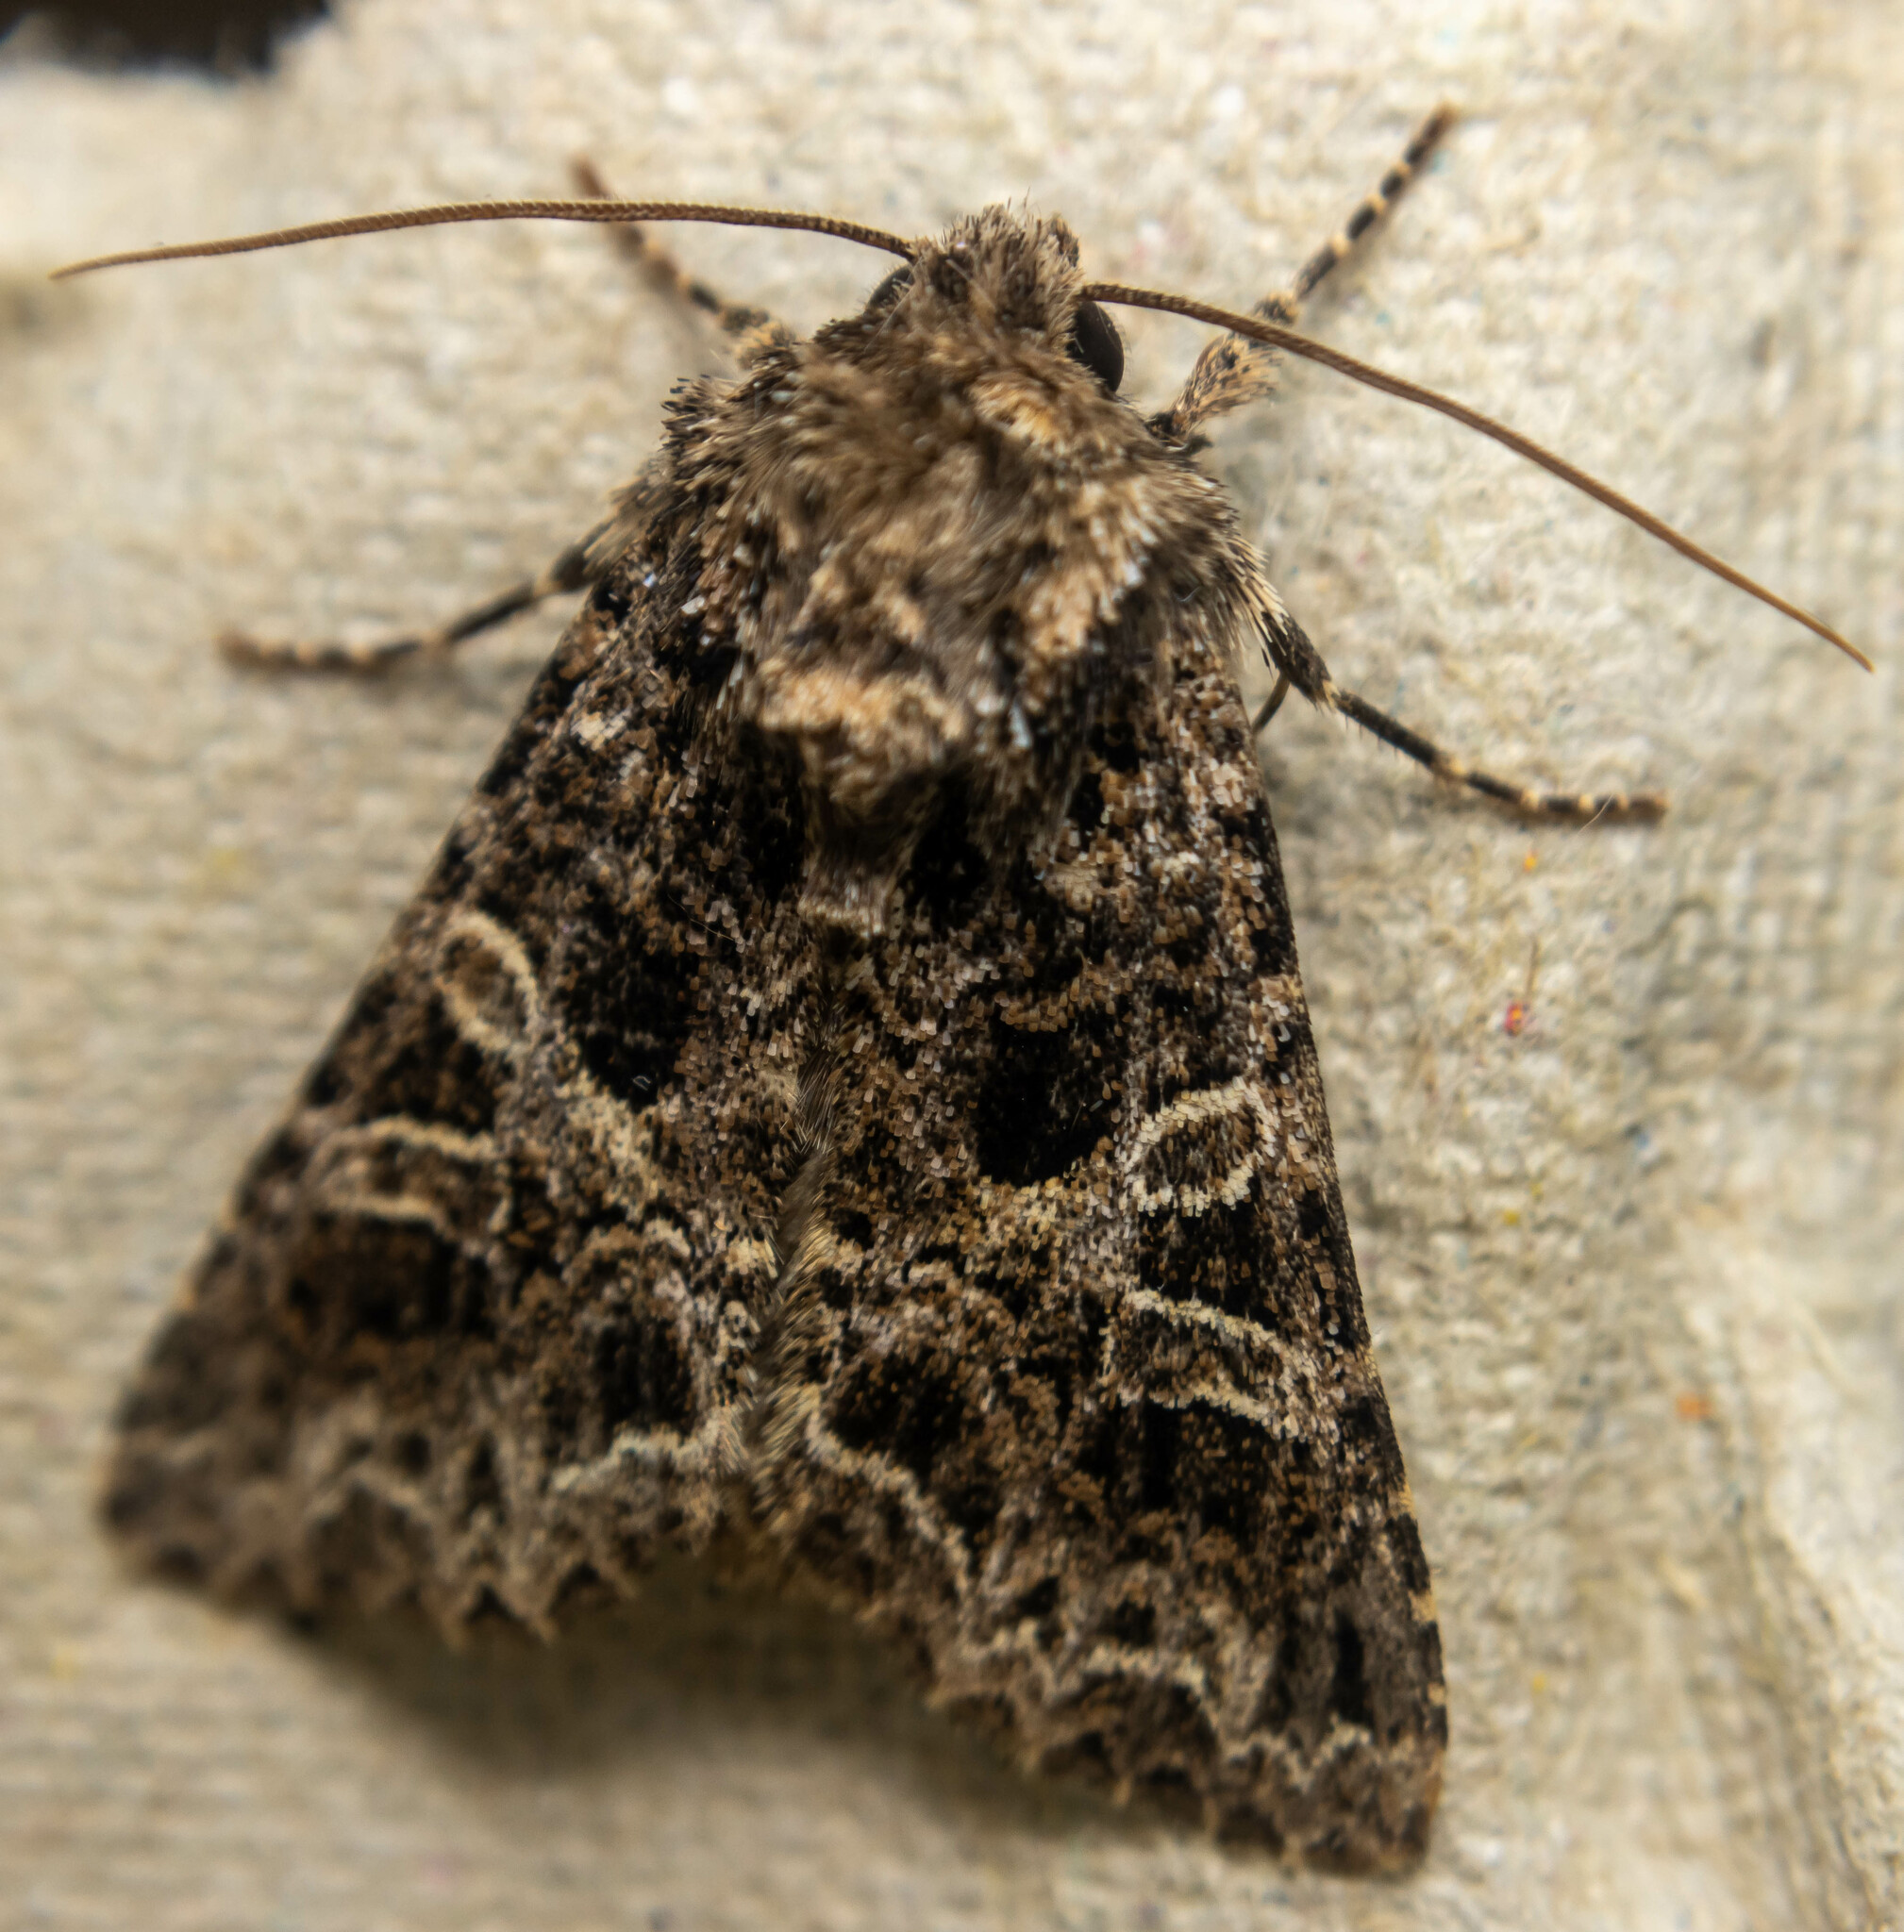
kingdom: Animalia
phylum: Arthropoda
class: Insecta
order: Lepidoptera
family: Noctuidae
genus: Hadena
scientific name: Hadena bicruris
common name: Lychnis
